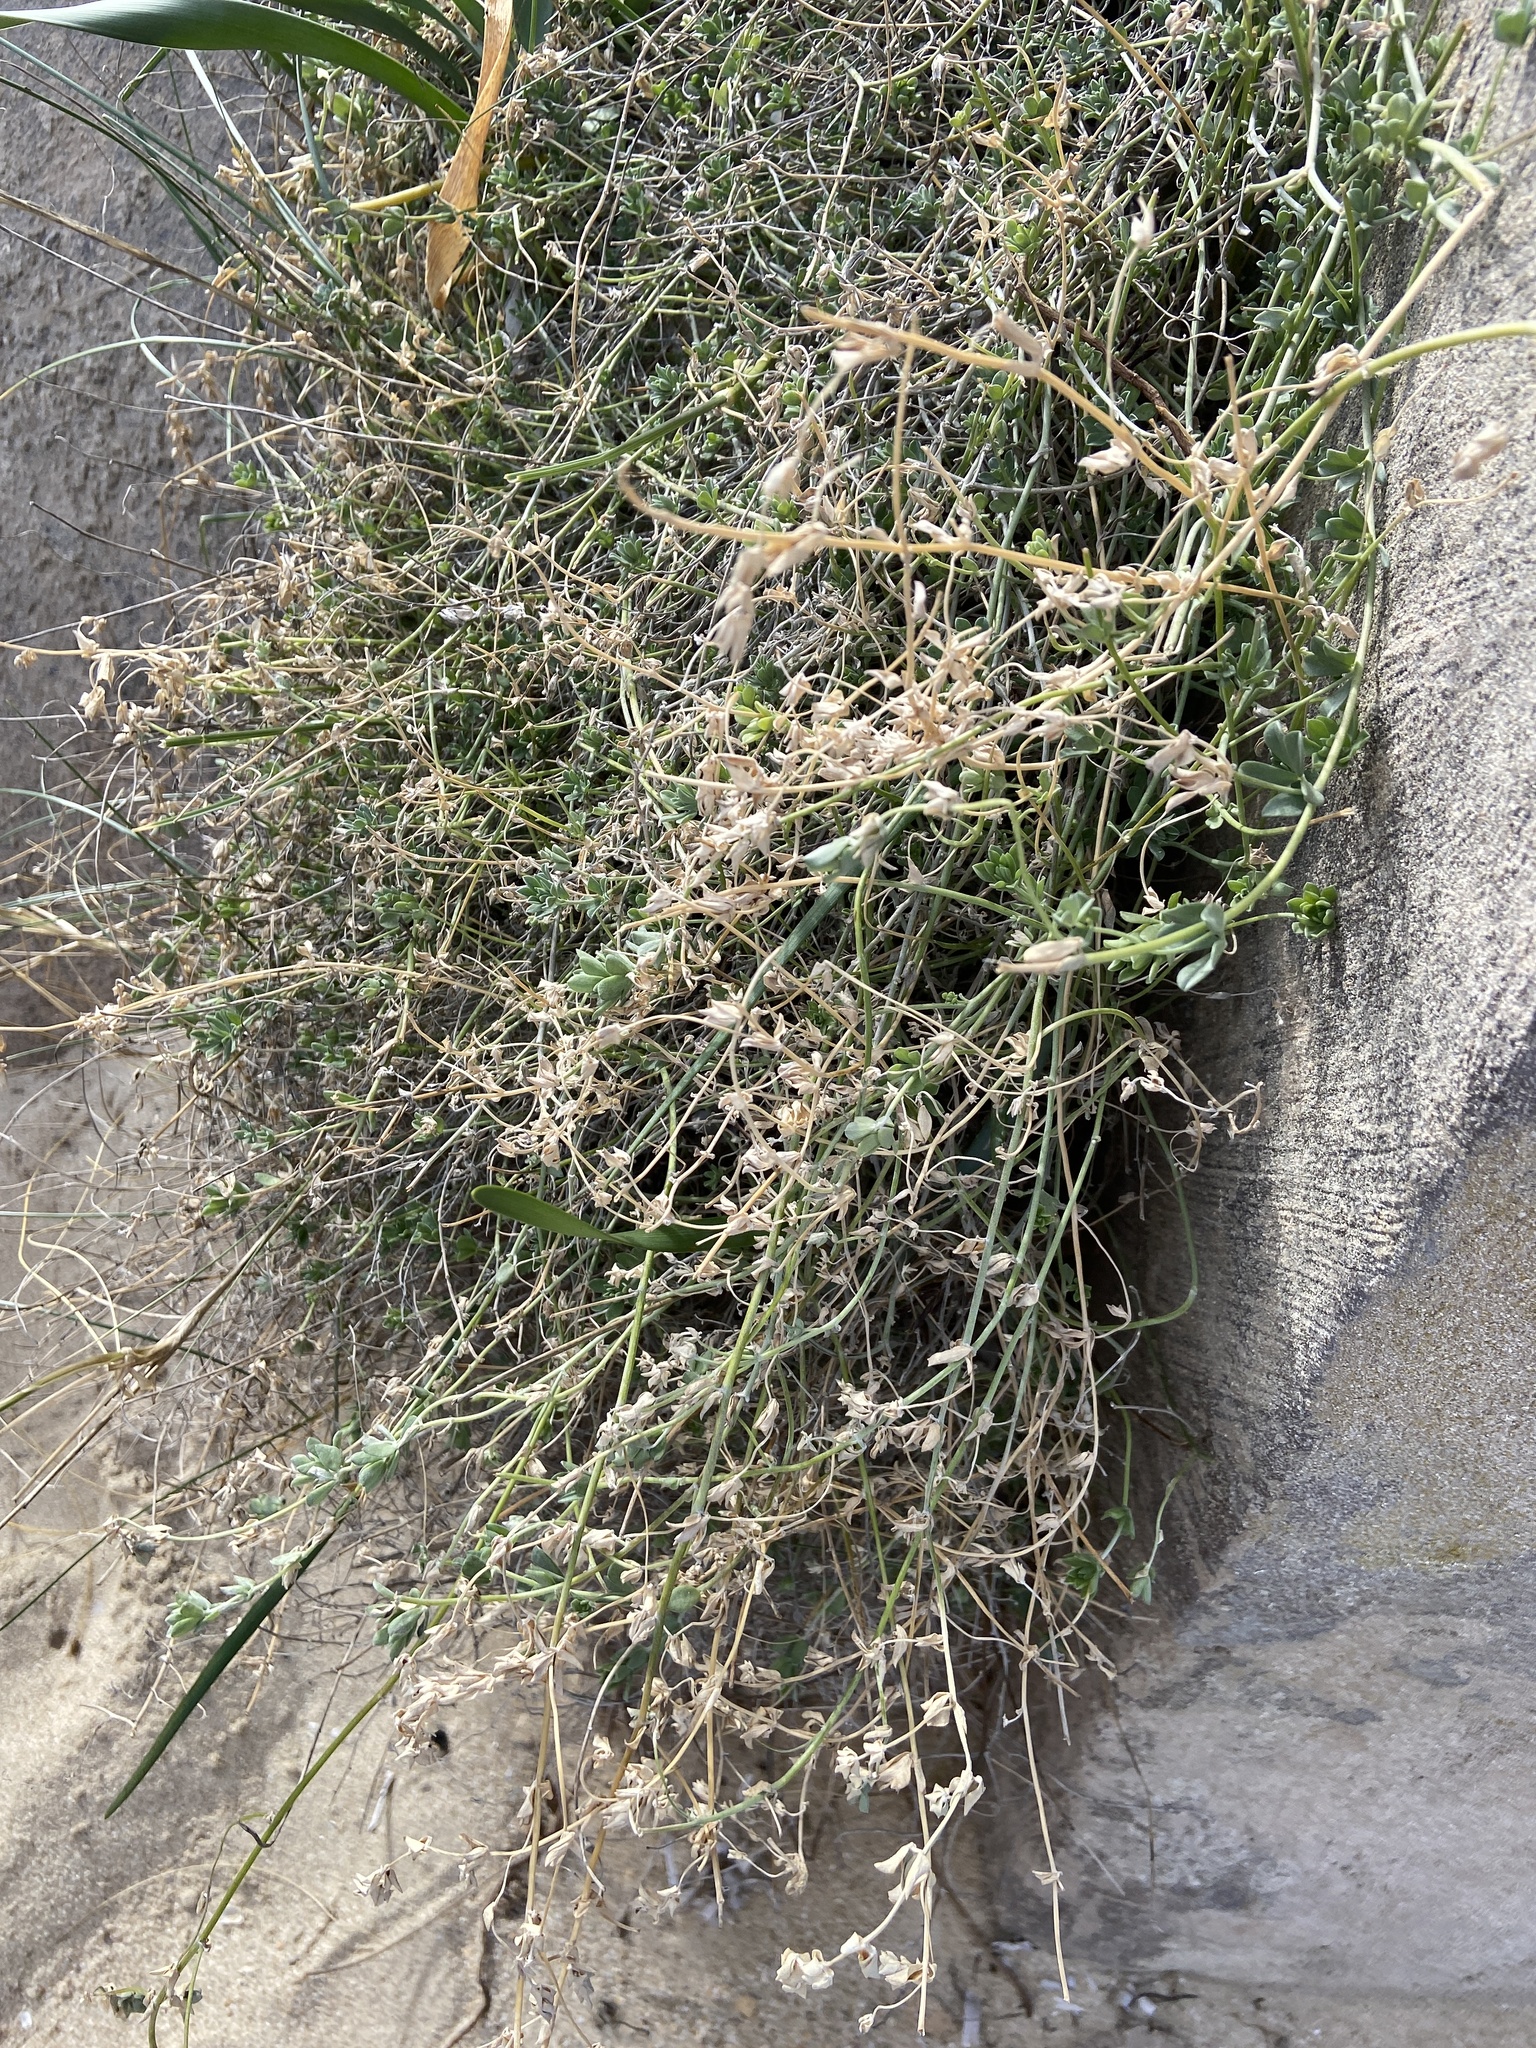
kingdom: Plantae
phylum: Tracheophyta
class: Magnoliopsida
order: Fabales
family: Fabaceae
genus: Lotus
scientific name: Lotus cytisoides
